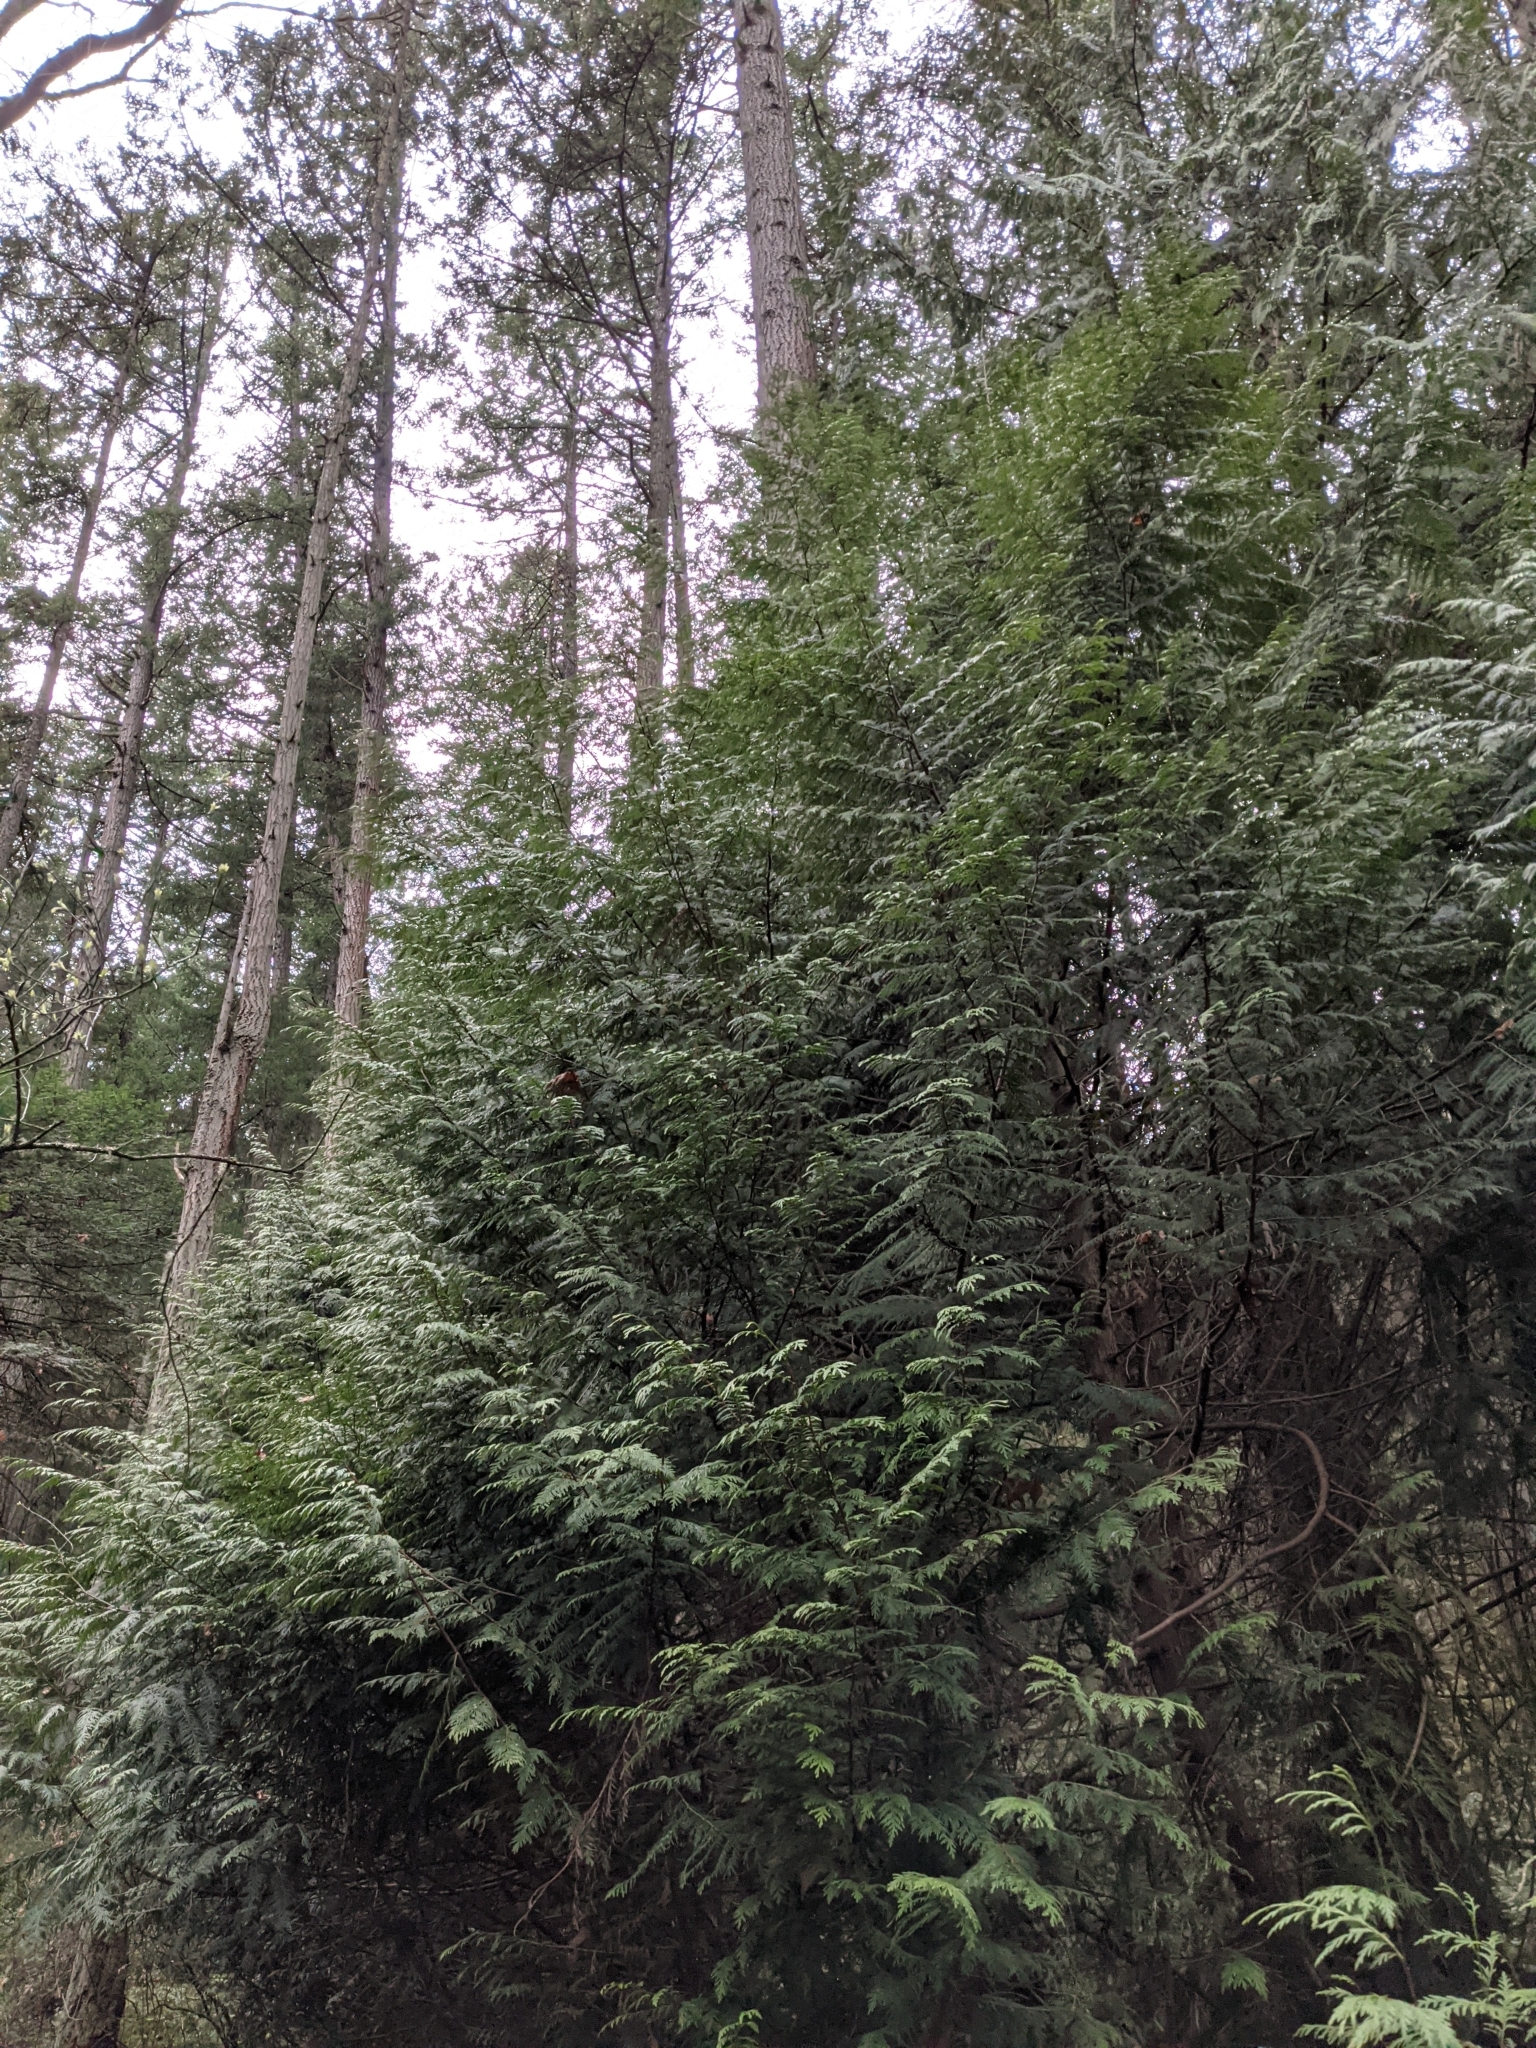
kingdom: Plantae
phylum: Tracheophyta
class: Pinopsida
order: Pinales
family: Cupressaceae
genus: Thuja
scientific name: Thuja plicata
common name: Western red-cedar
